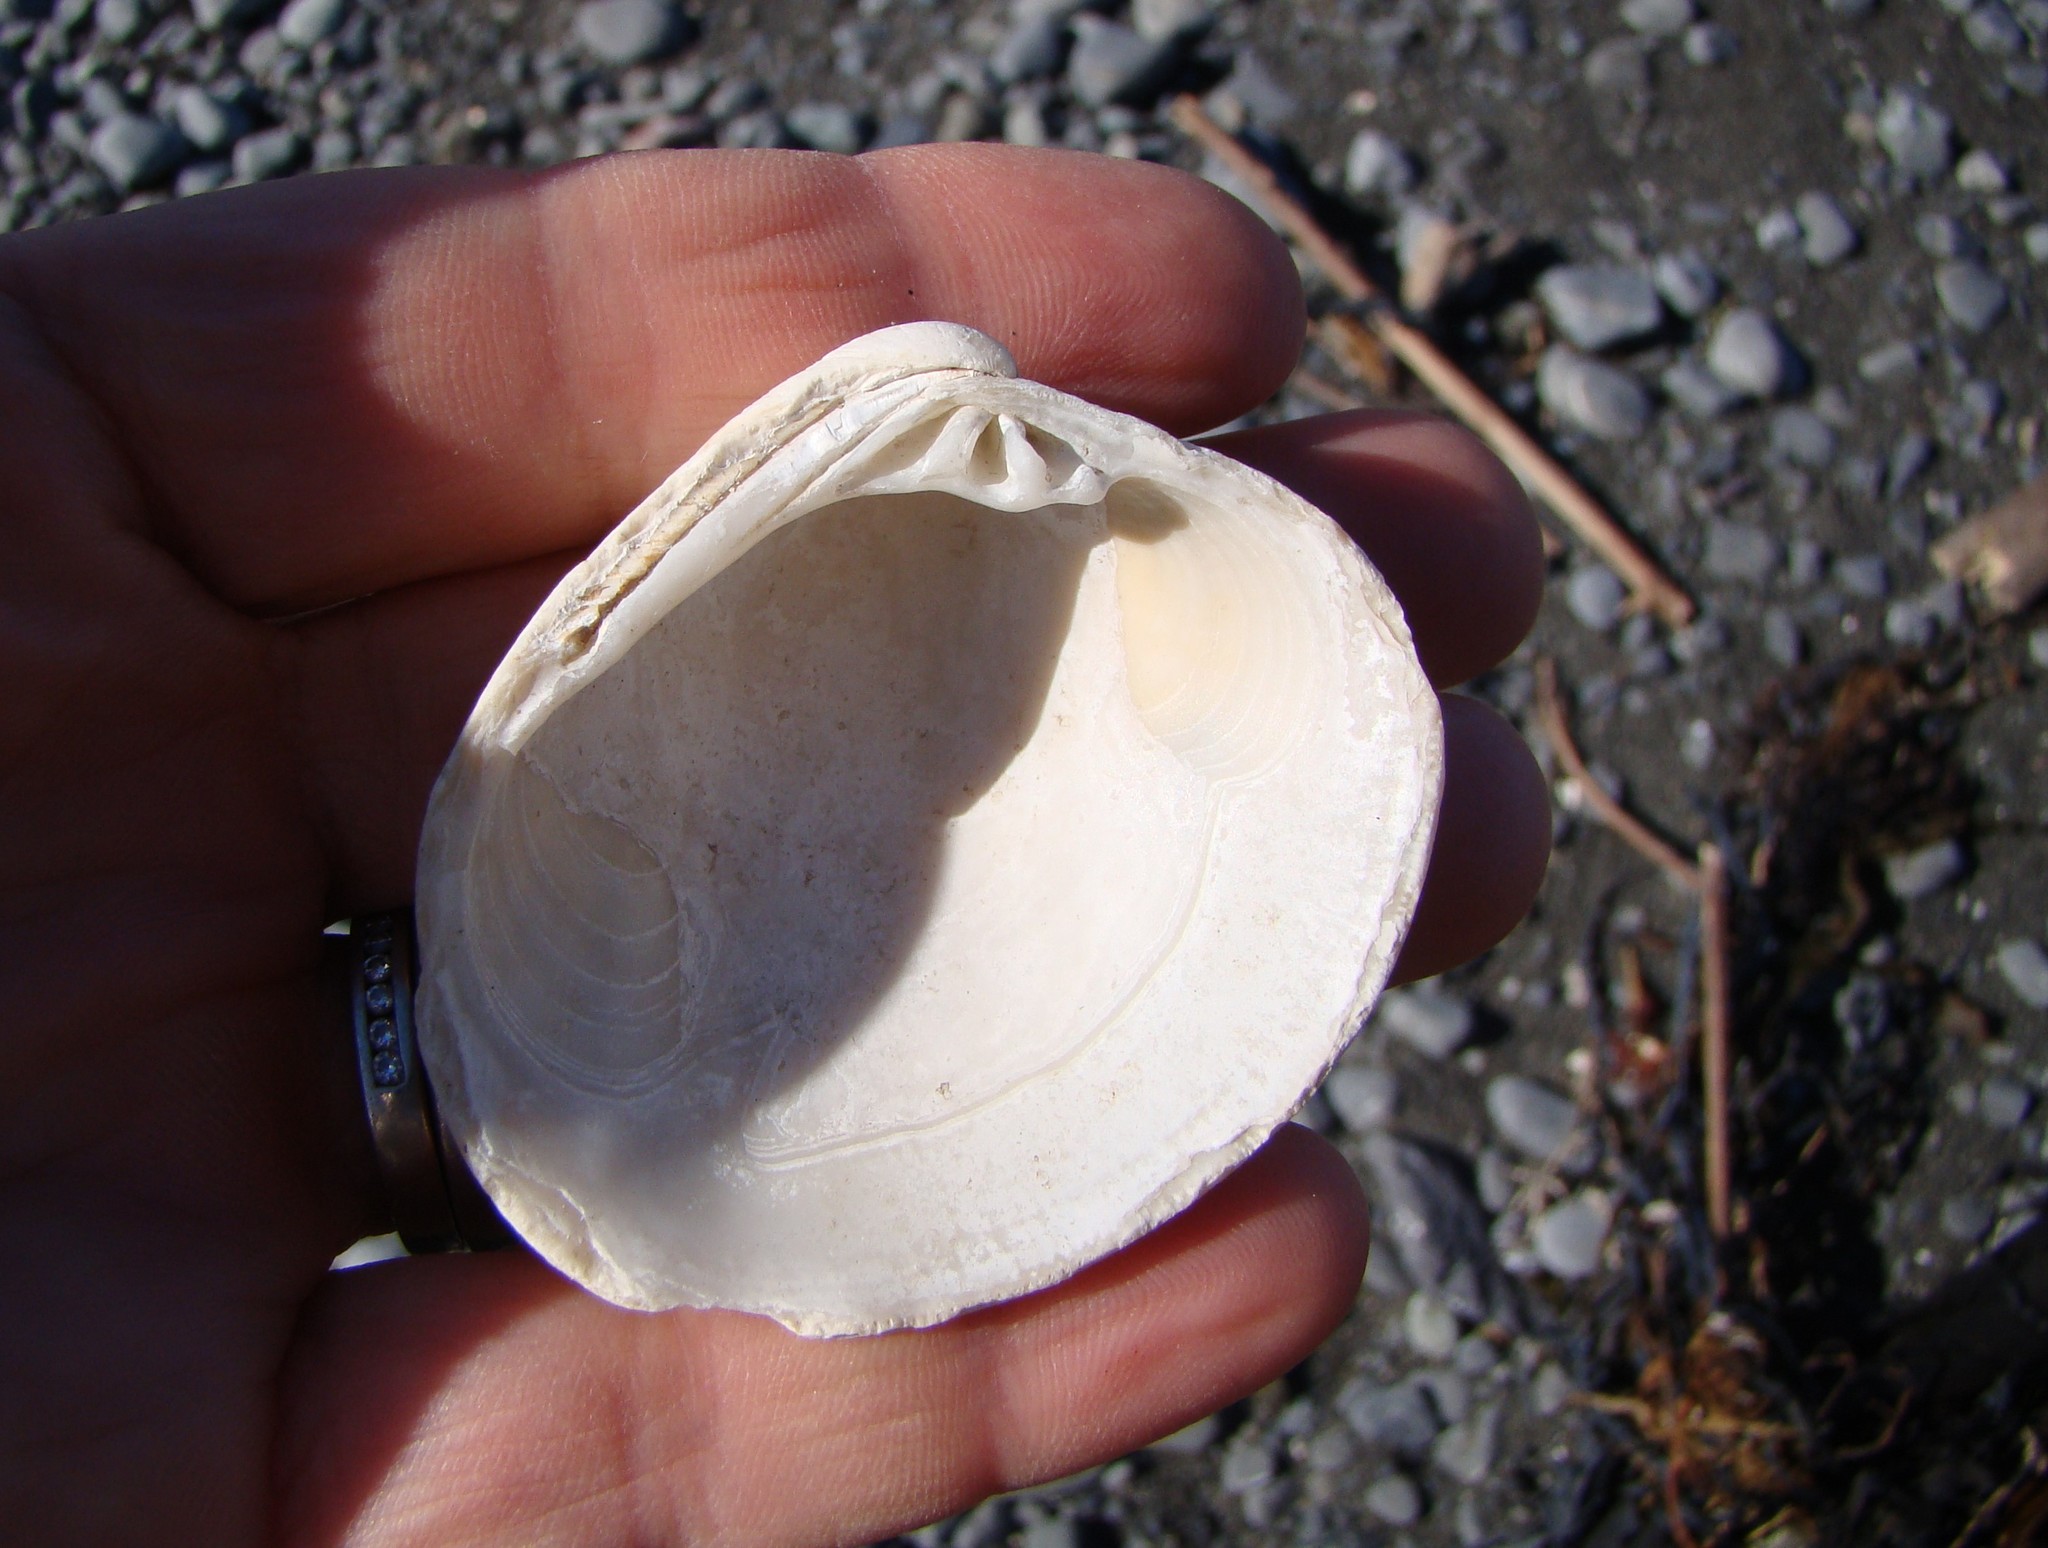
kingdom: Animalia
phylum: Mollusca
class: Bivalvia
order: Venerida
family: Veneridae
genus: Dosina
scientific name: Dosina mactracea
